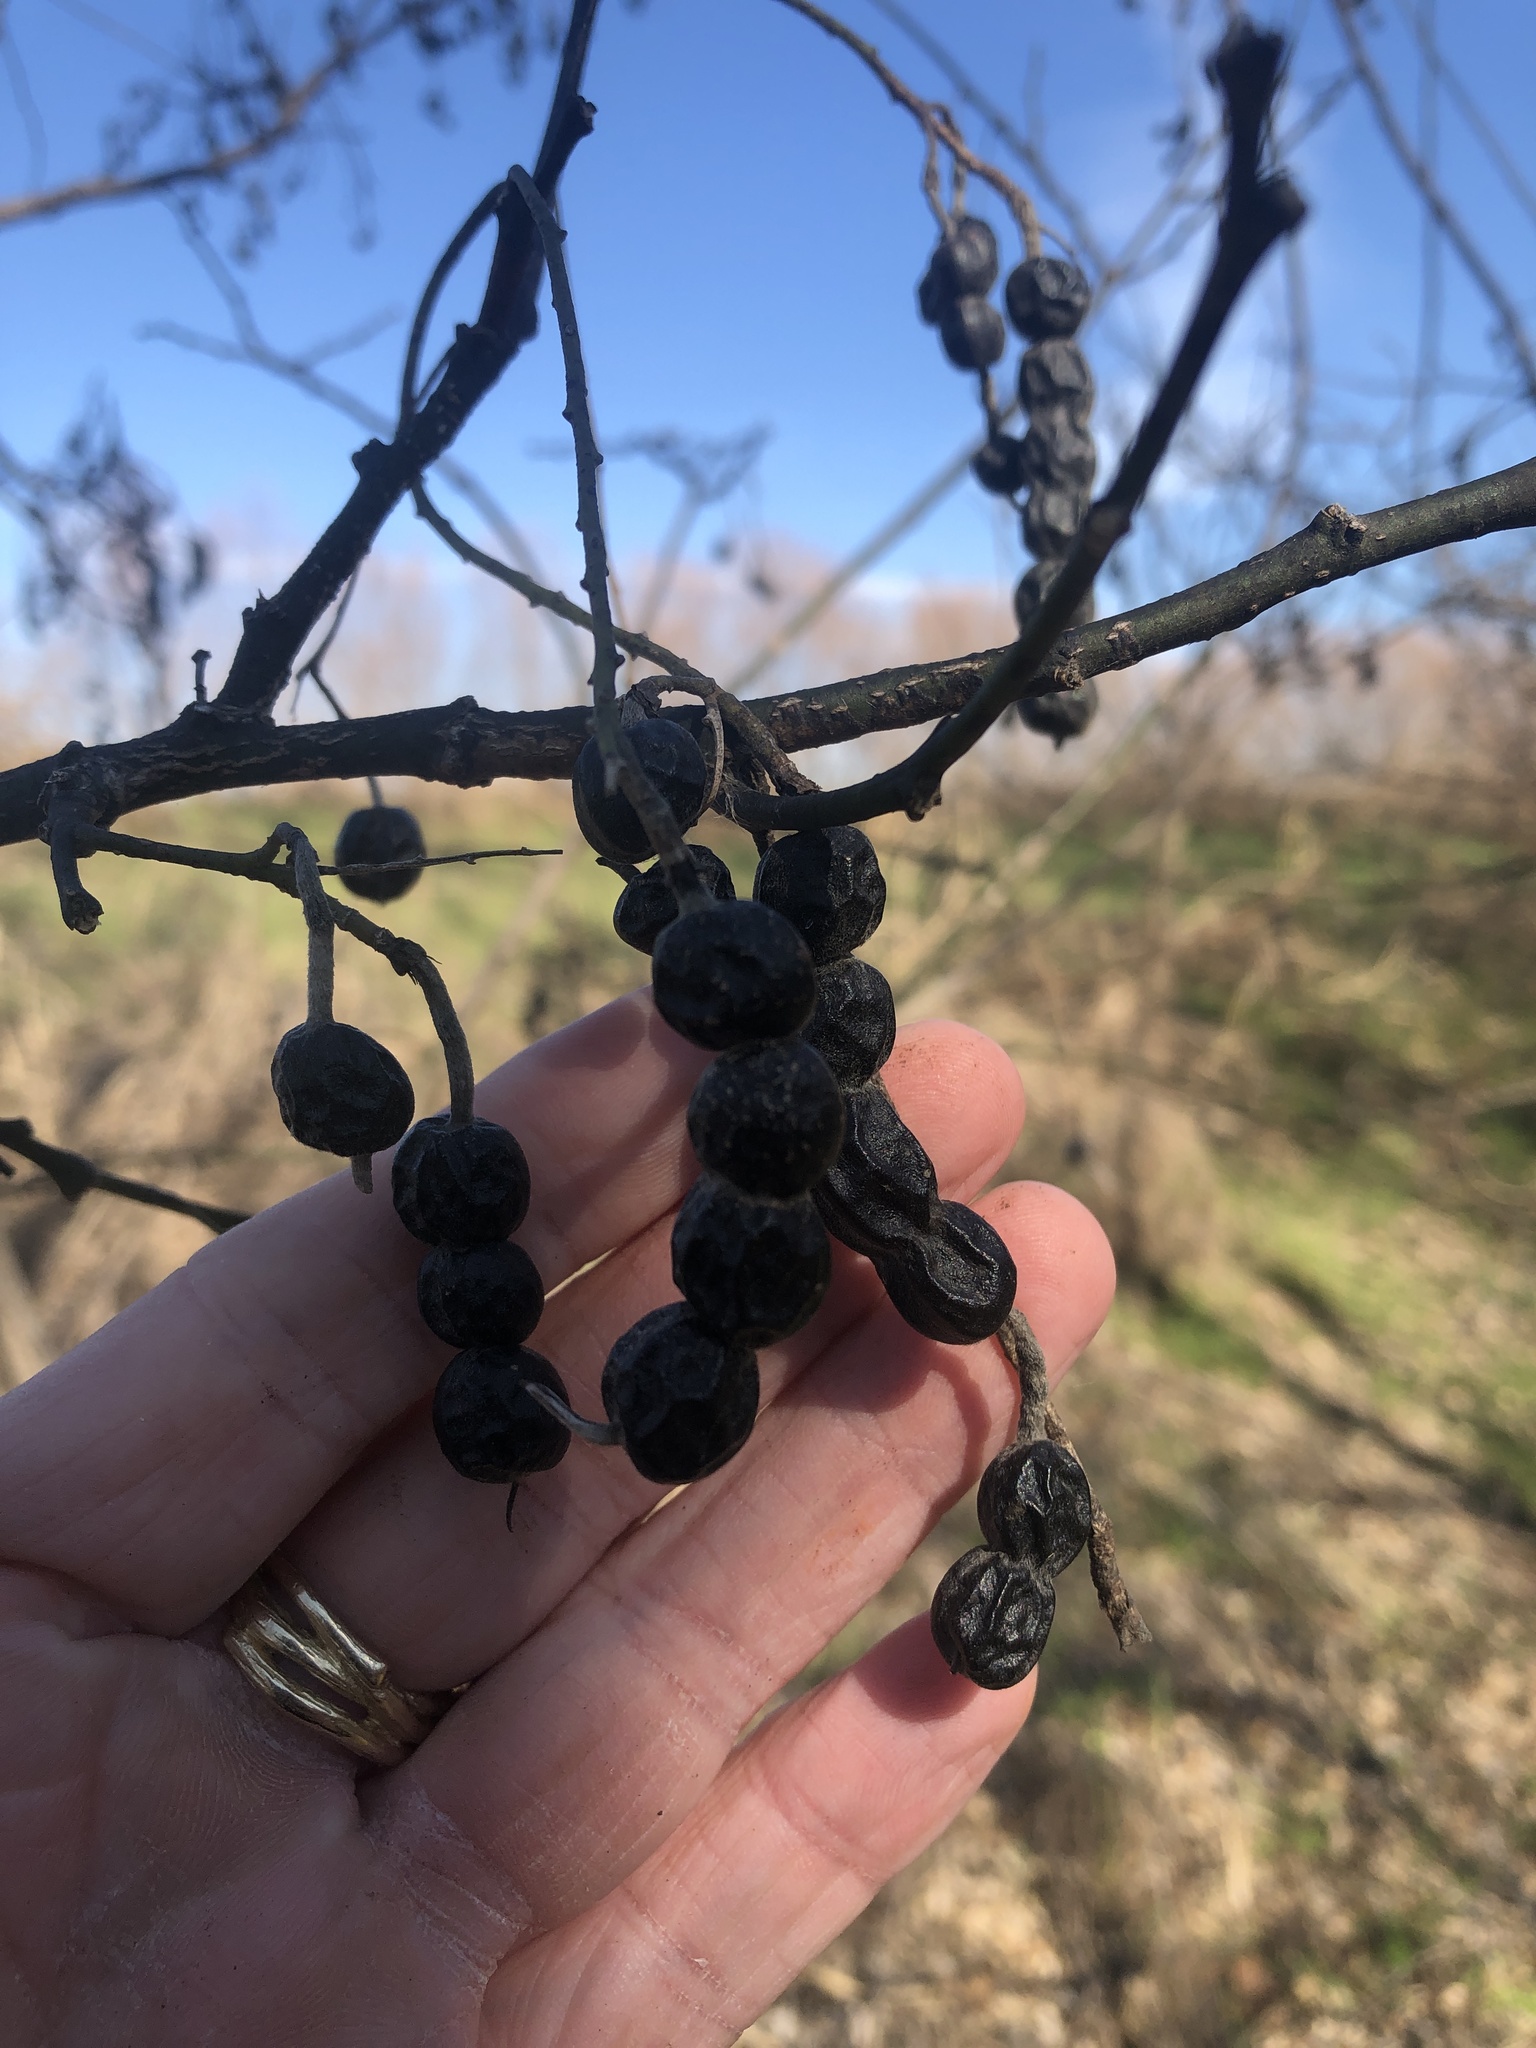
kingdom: Plantae
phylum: Tracheophyta
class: Magnoliopsida
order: Fabales
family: Fabaceae
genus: Styphnolobium
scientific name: Styphnolobium affine
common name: Texas sophora
